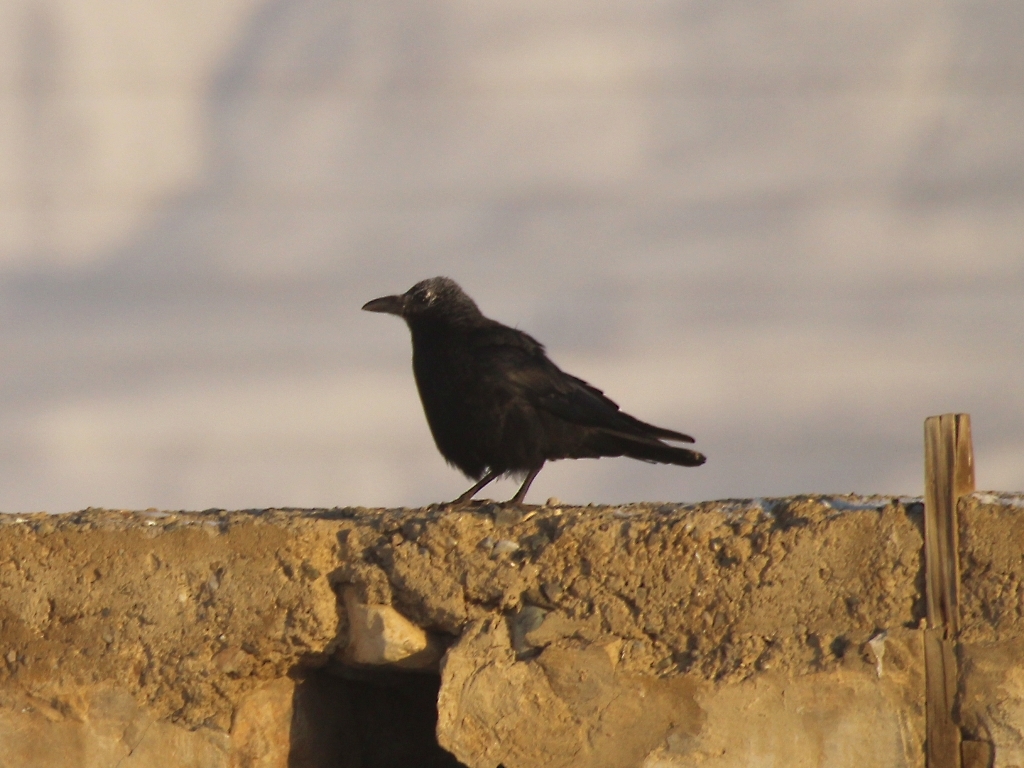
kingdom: Animalia
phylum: Chordata
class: Aves
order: Passeriformes
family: Corvidae
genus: Corvus
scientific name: Corvus corone
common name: Carrion crow
